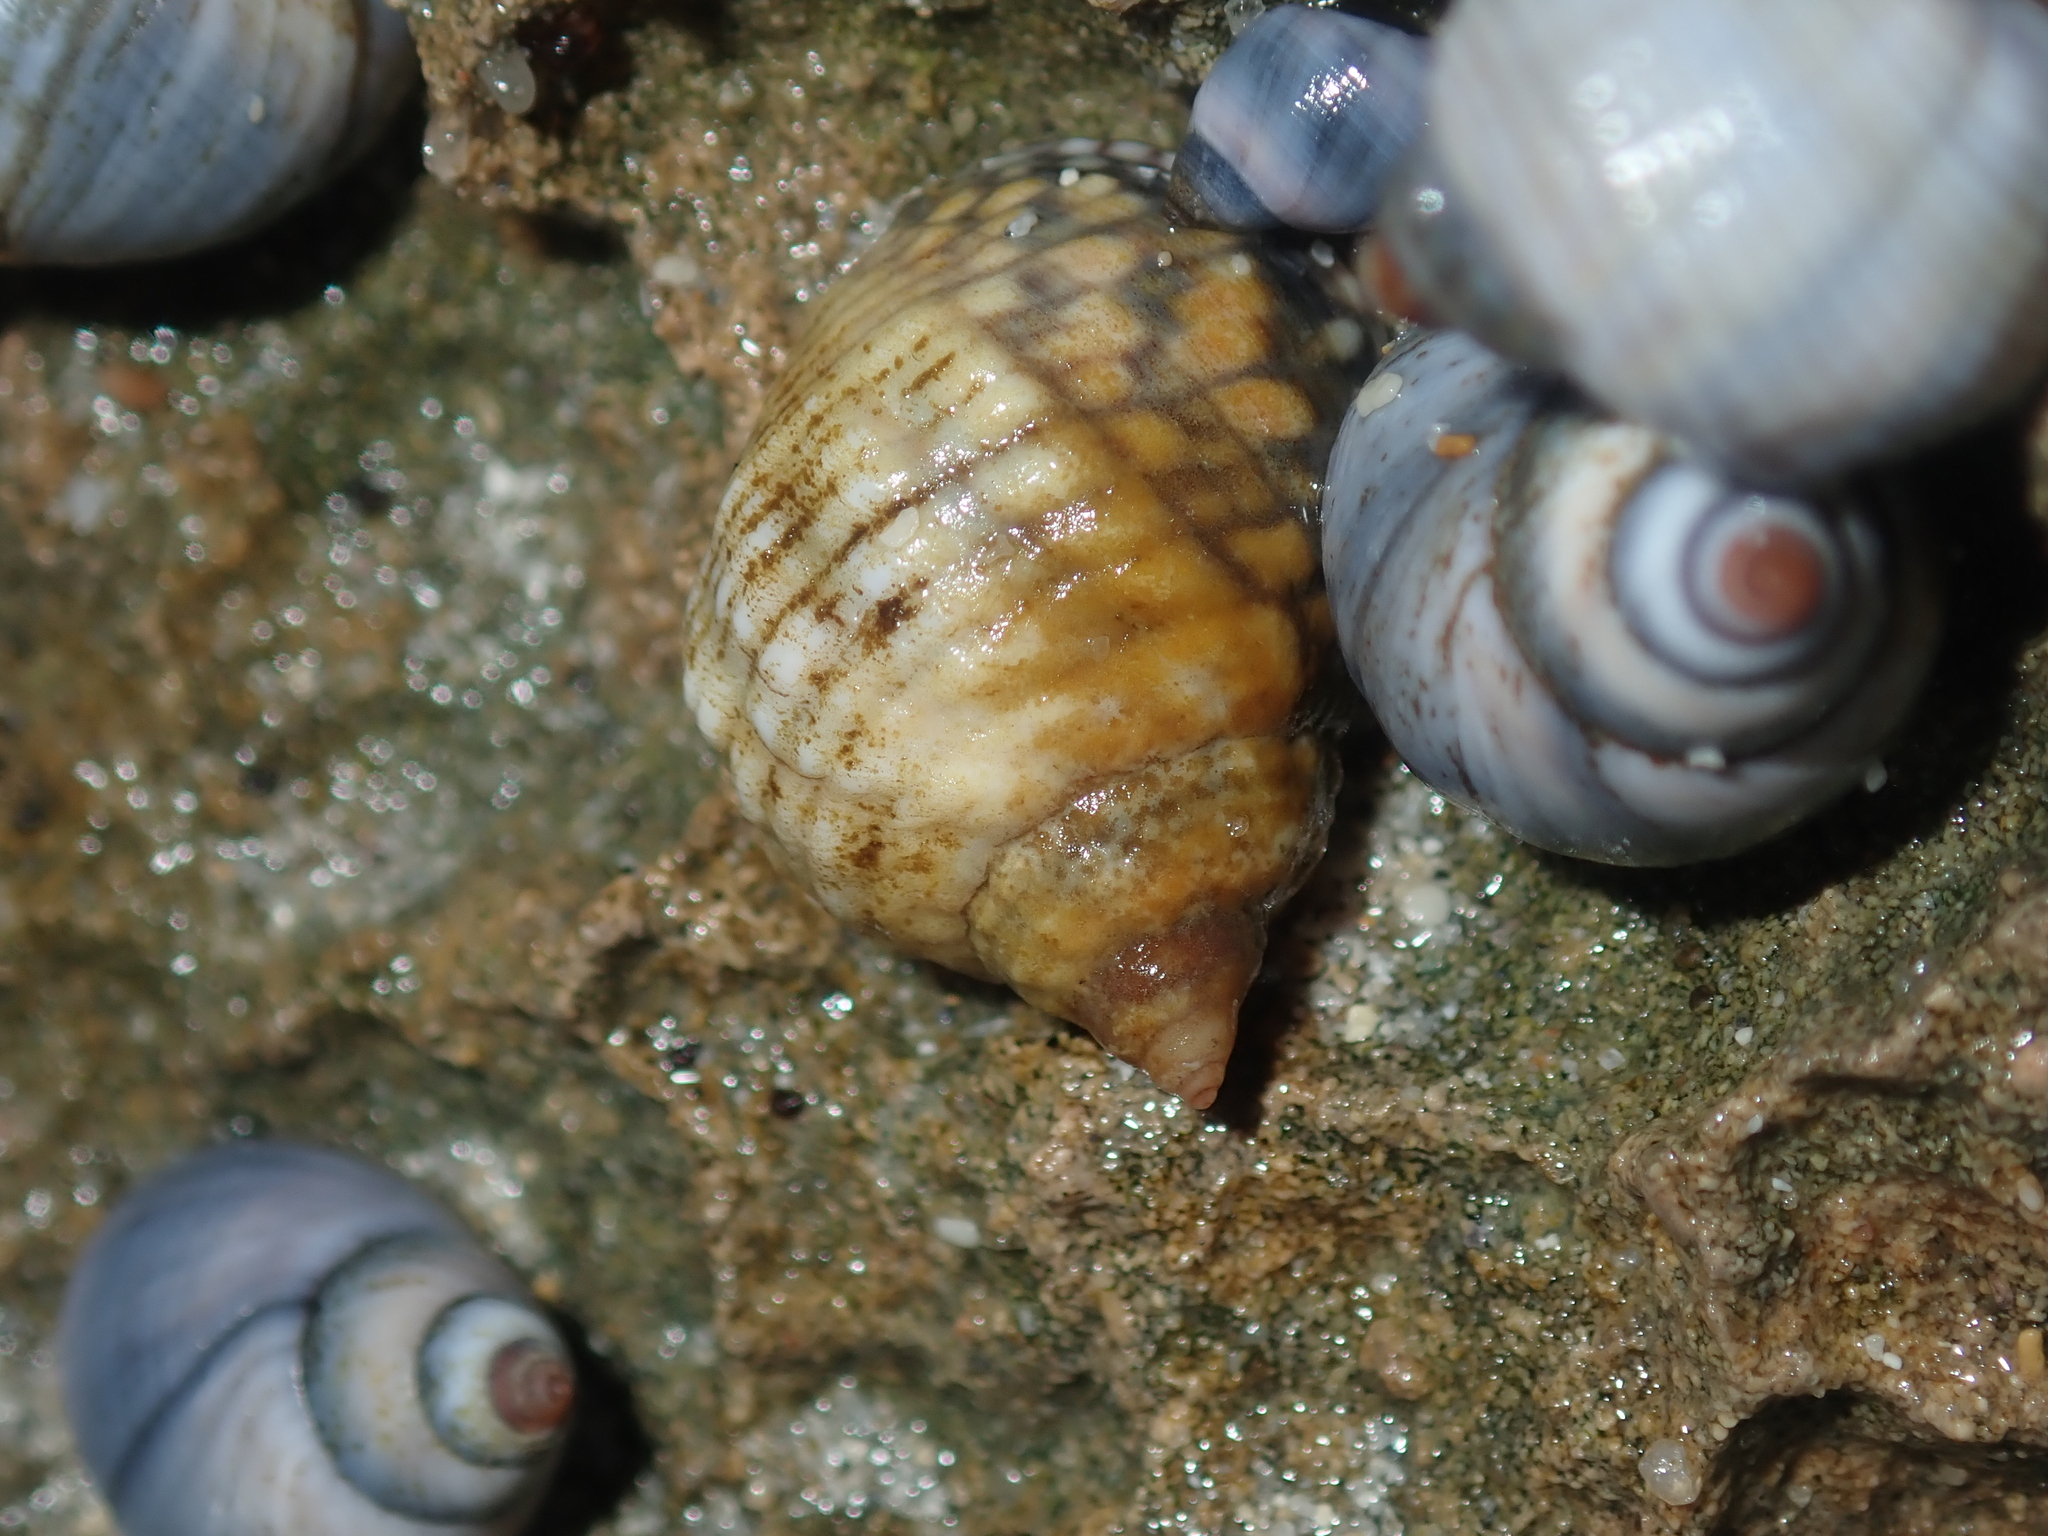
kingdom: Animalia
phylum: Mollusca
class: Gastropoda
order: Littorinimorpha
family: Littorinidae
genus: Austrolittorina
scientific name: Austrolittorina unifasciata
